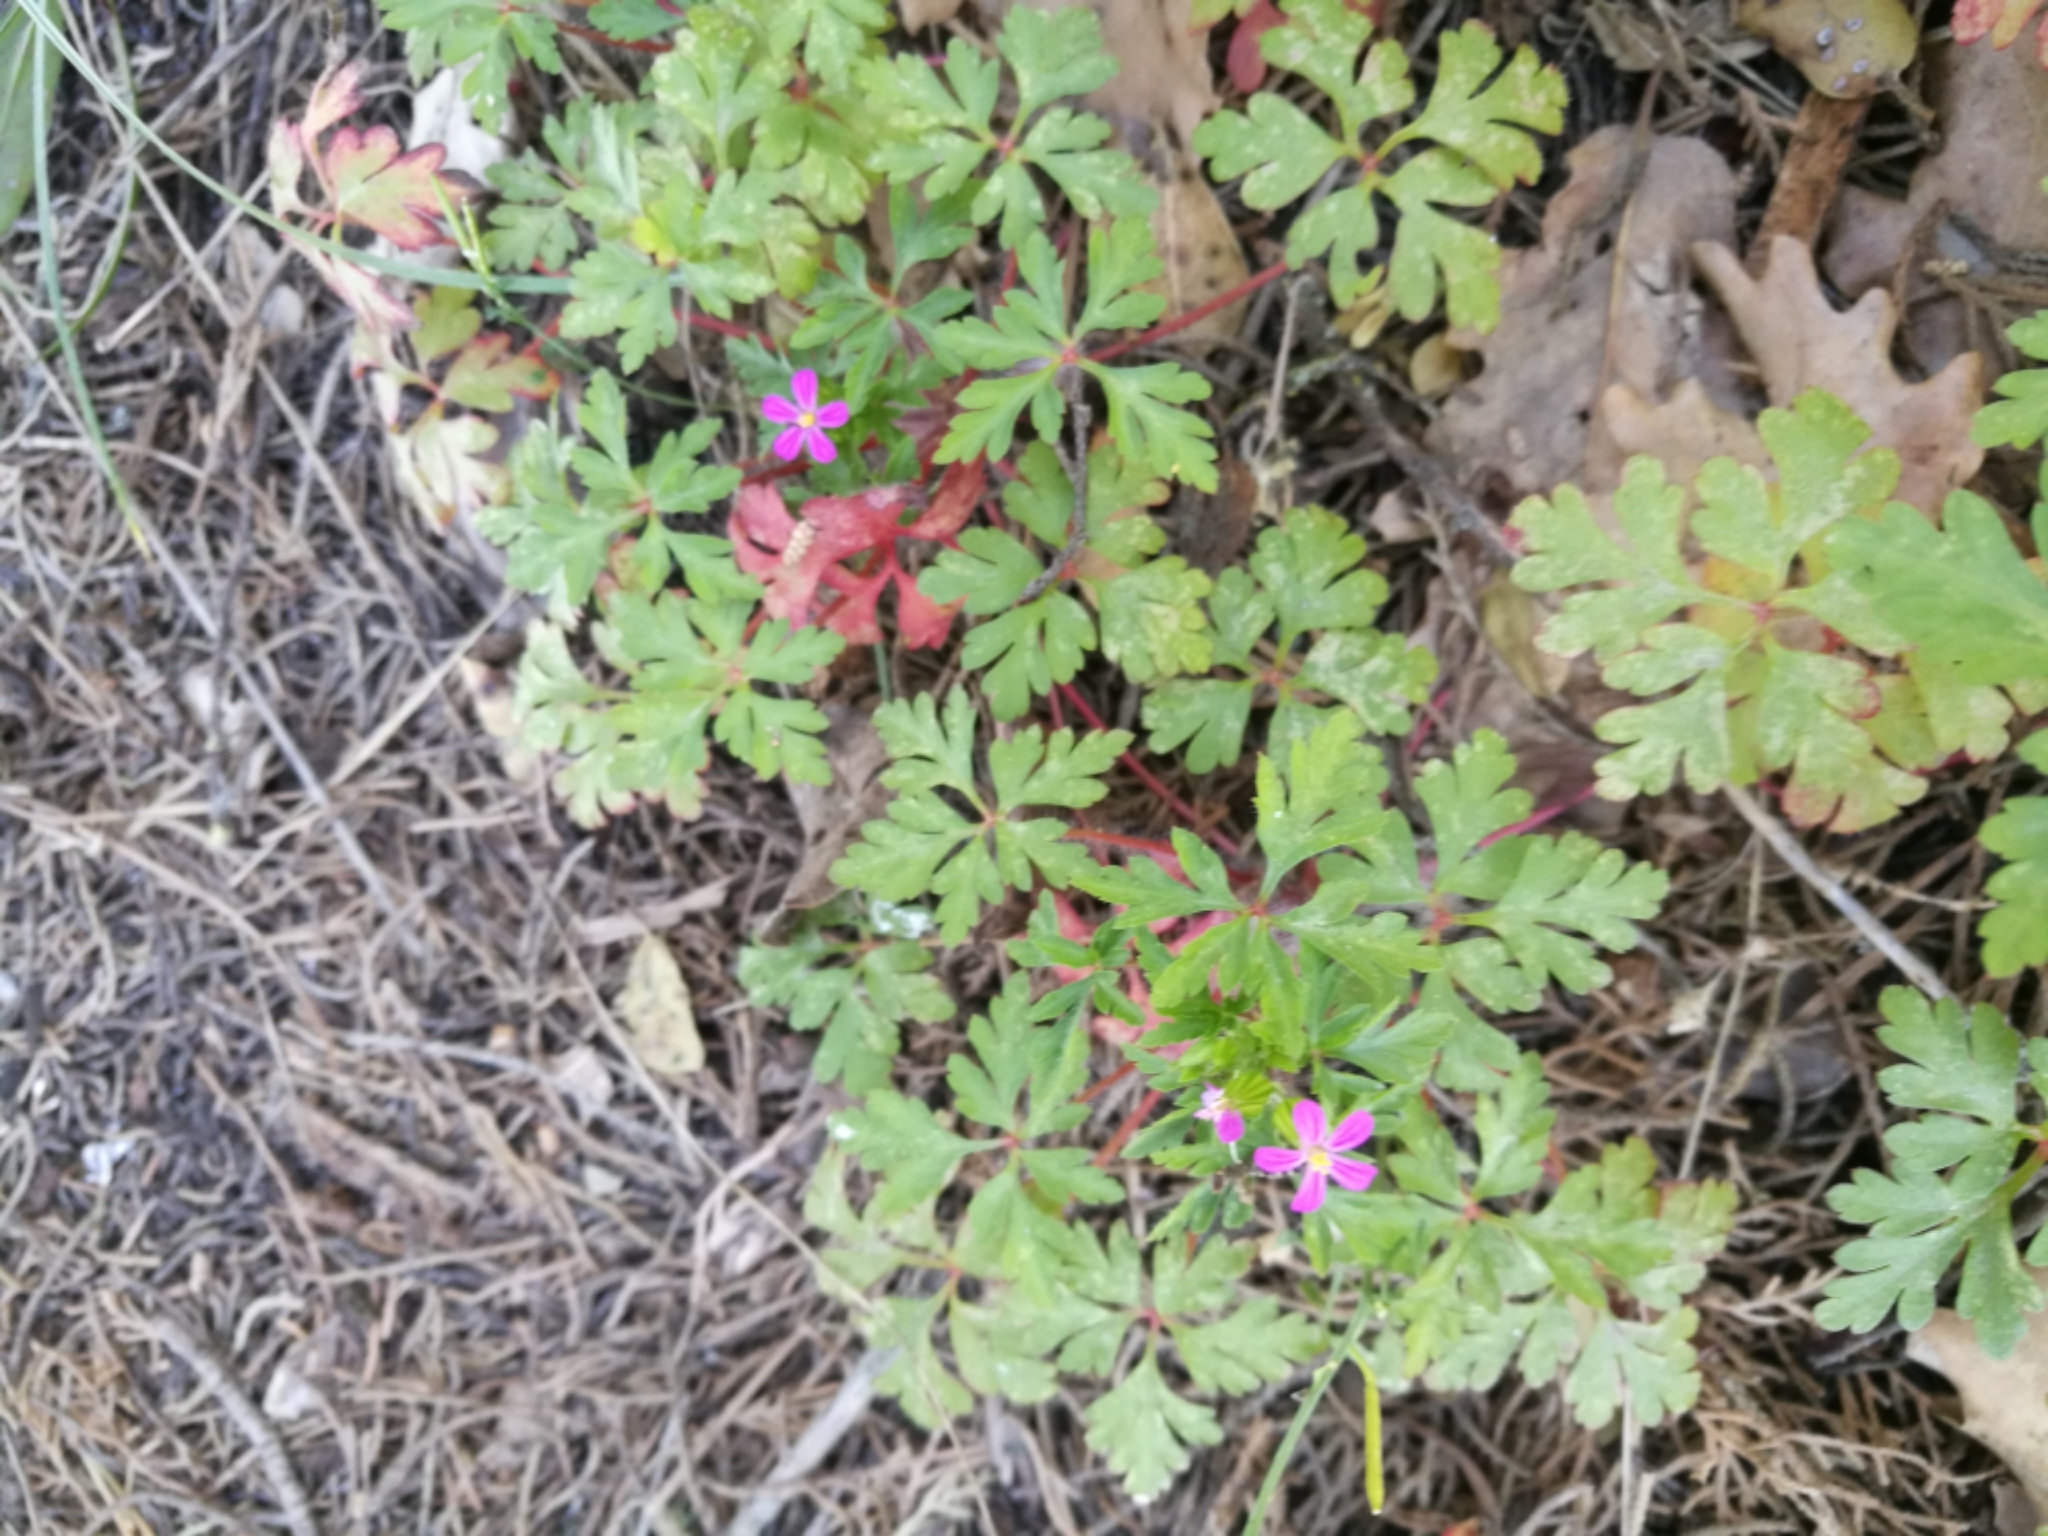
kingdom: Plantae
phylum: Tracheophyta
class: Magnoliopsida
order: Geraniales
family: Geraniaceae
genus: Geranium
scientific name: Geranium robertianum
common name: Herb-robert
